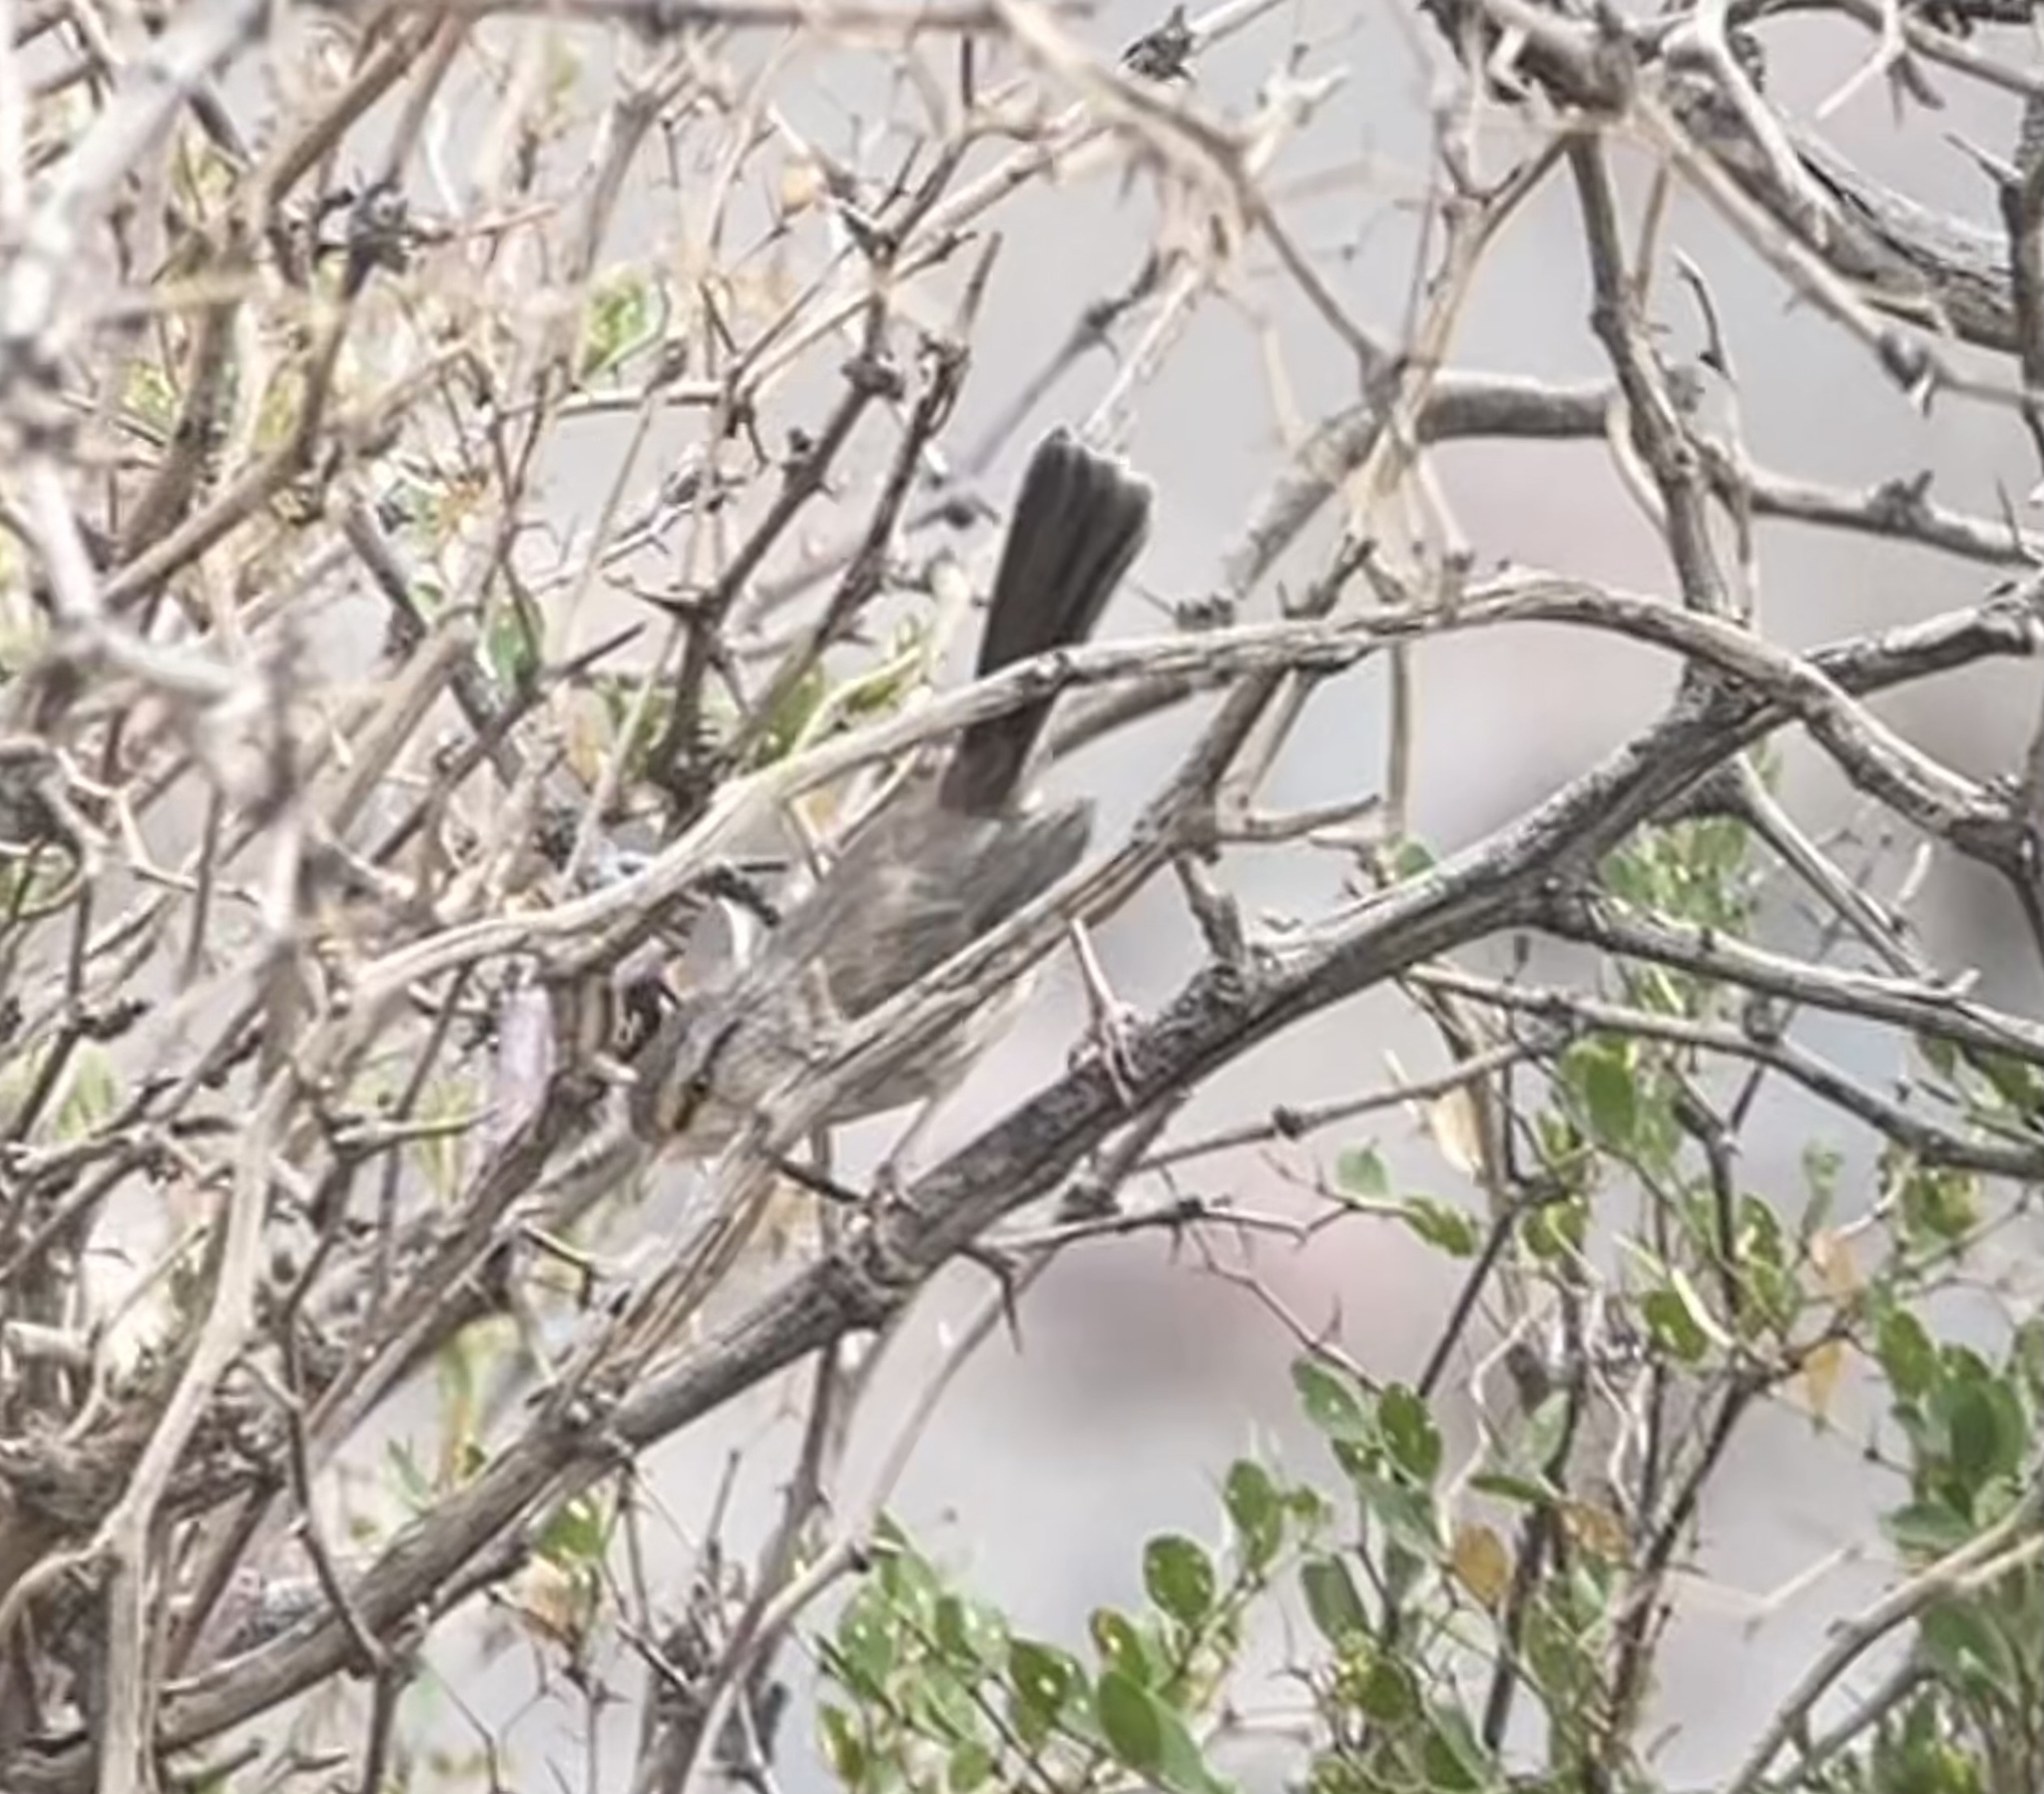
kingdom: Animalia
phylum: Chordata
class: Aves
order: Passeriformes
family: Scotocercidae
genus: Scotocerca
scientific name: Scotocerca inquieta
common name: Scrub warbler
